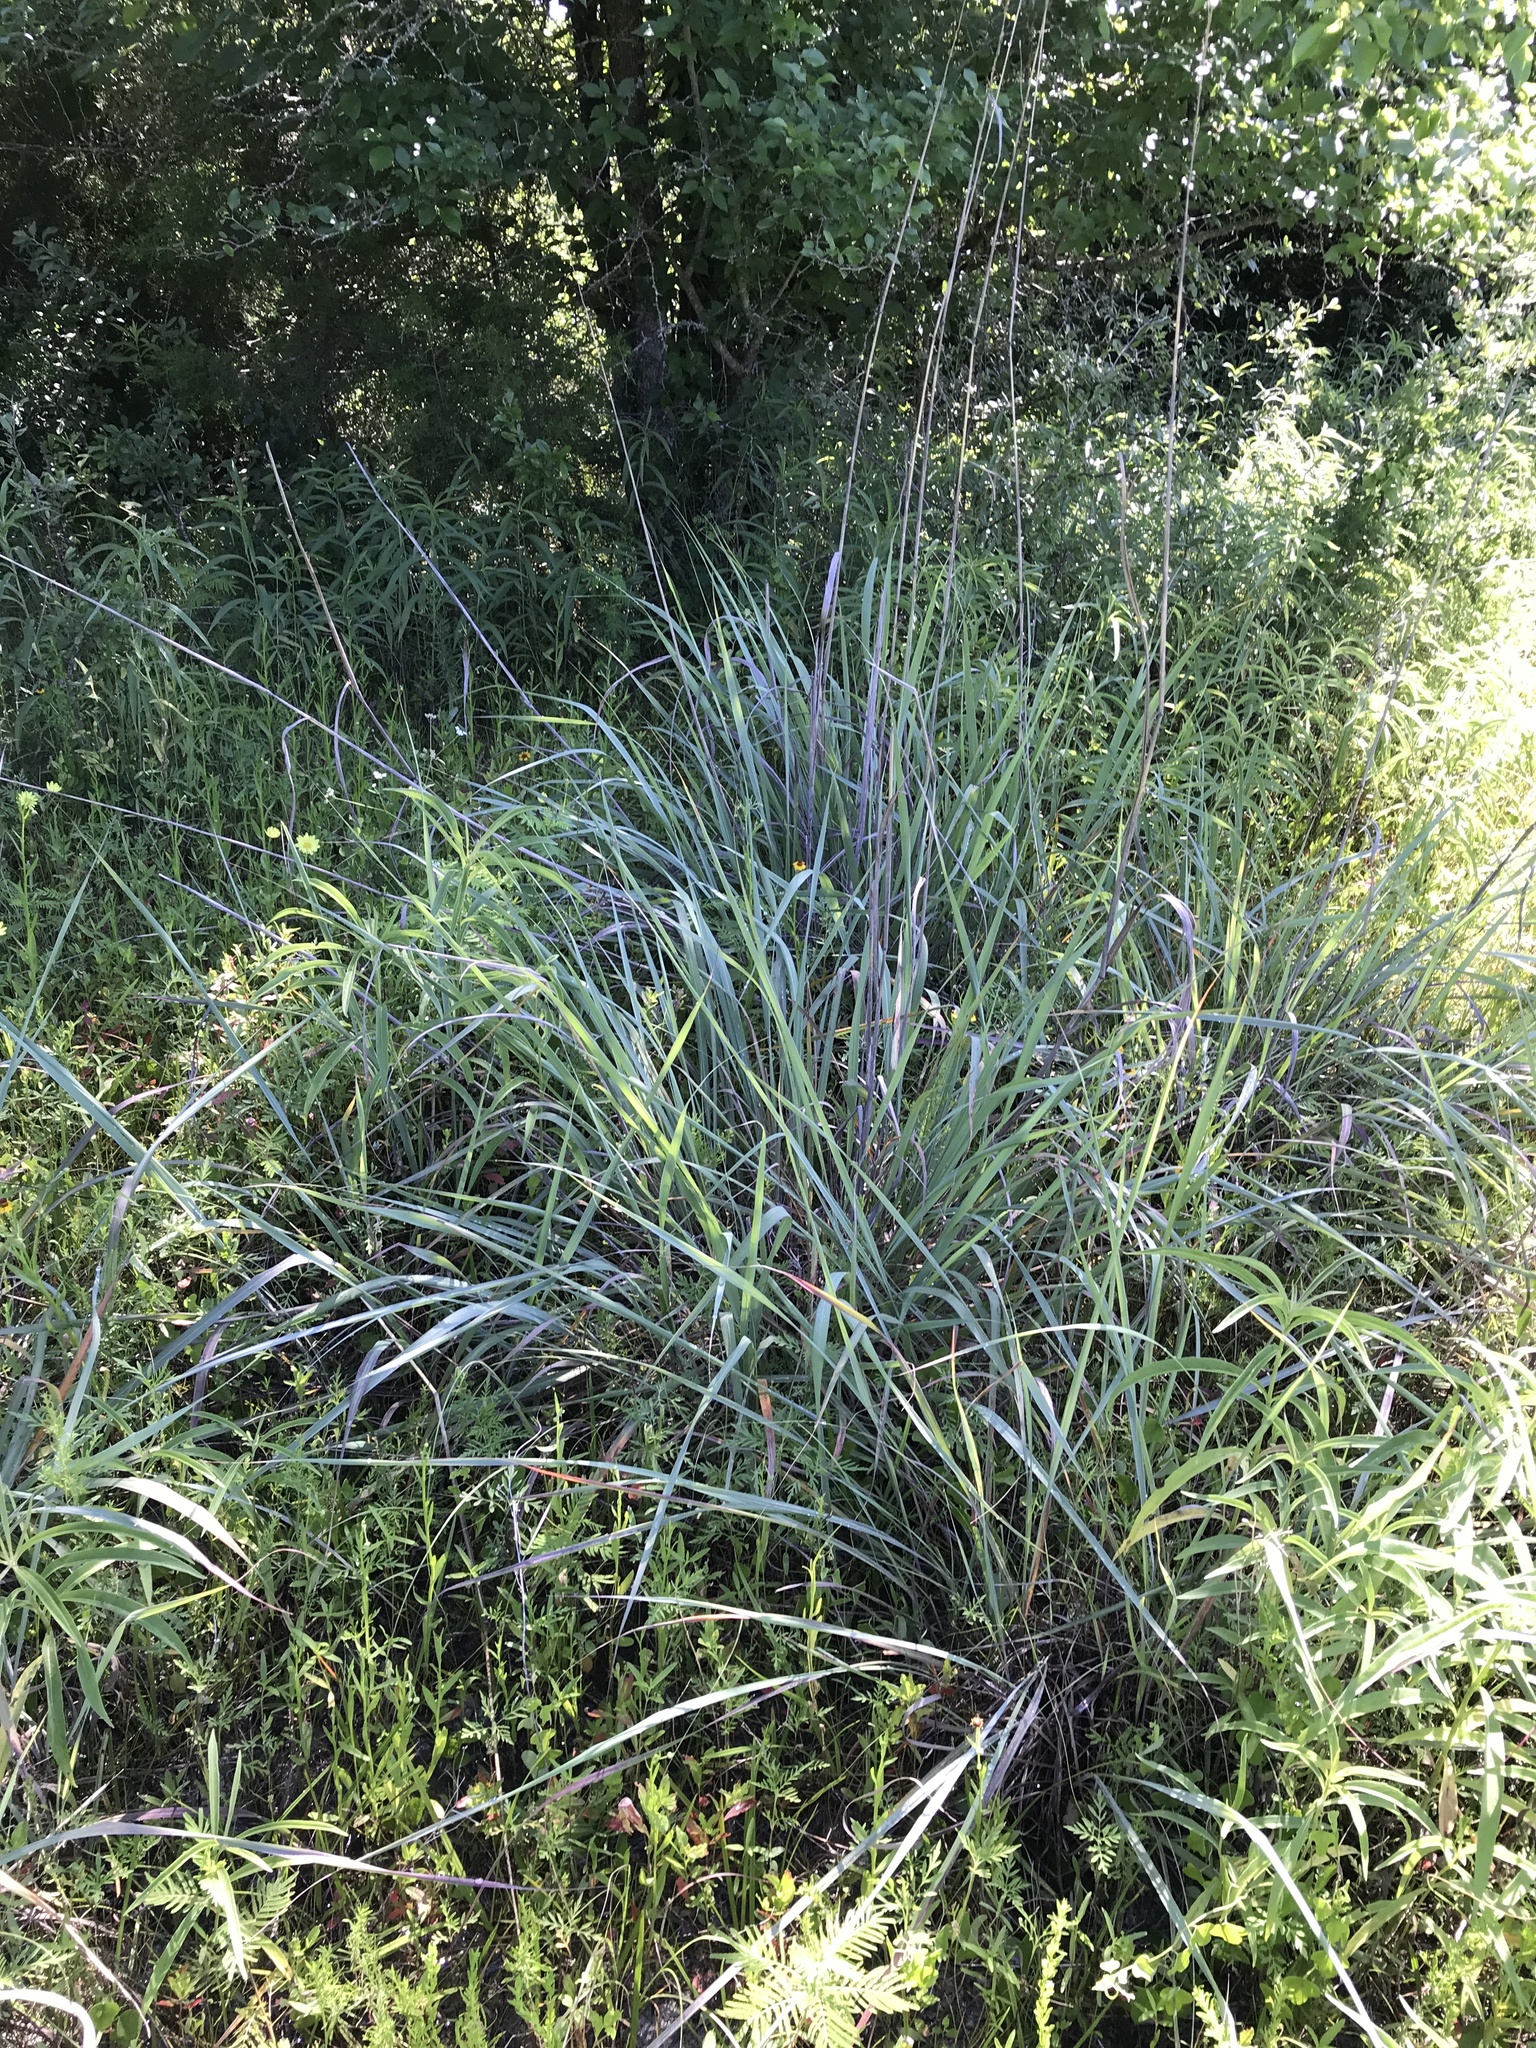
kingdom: Plantae
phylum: Tracheophyta
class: Liliopsida
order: Poales
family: Poaceae
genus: Sorghastrum
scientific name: Sorghastrum nutans
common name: Indian grass
